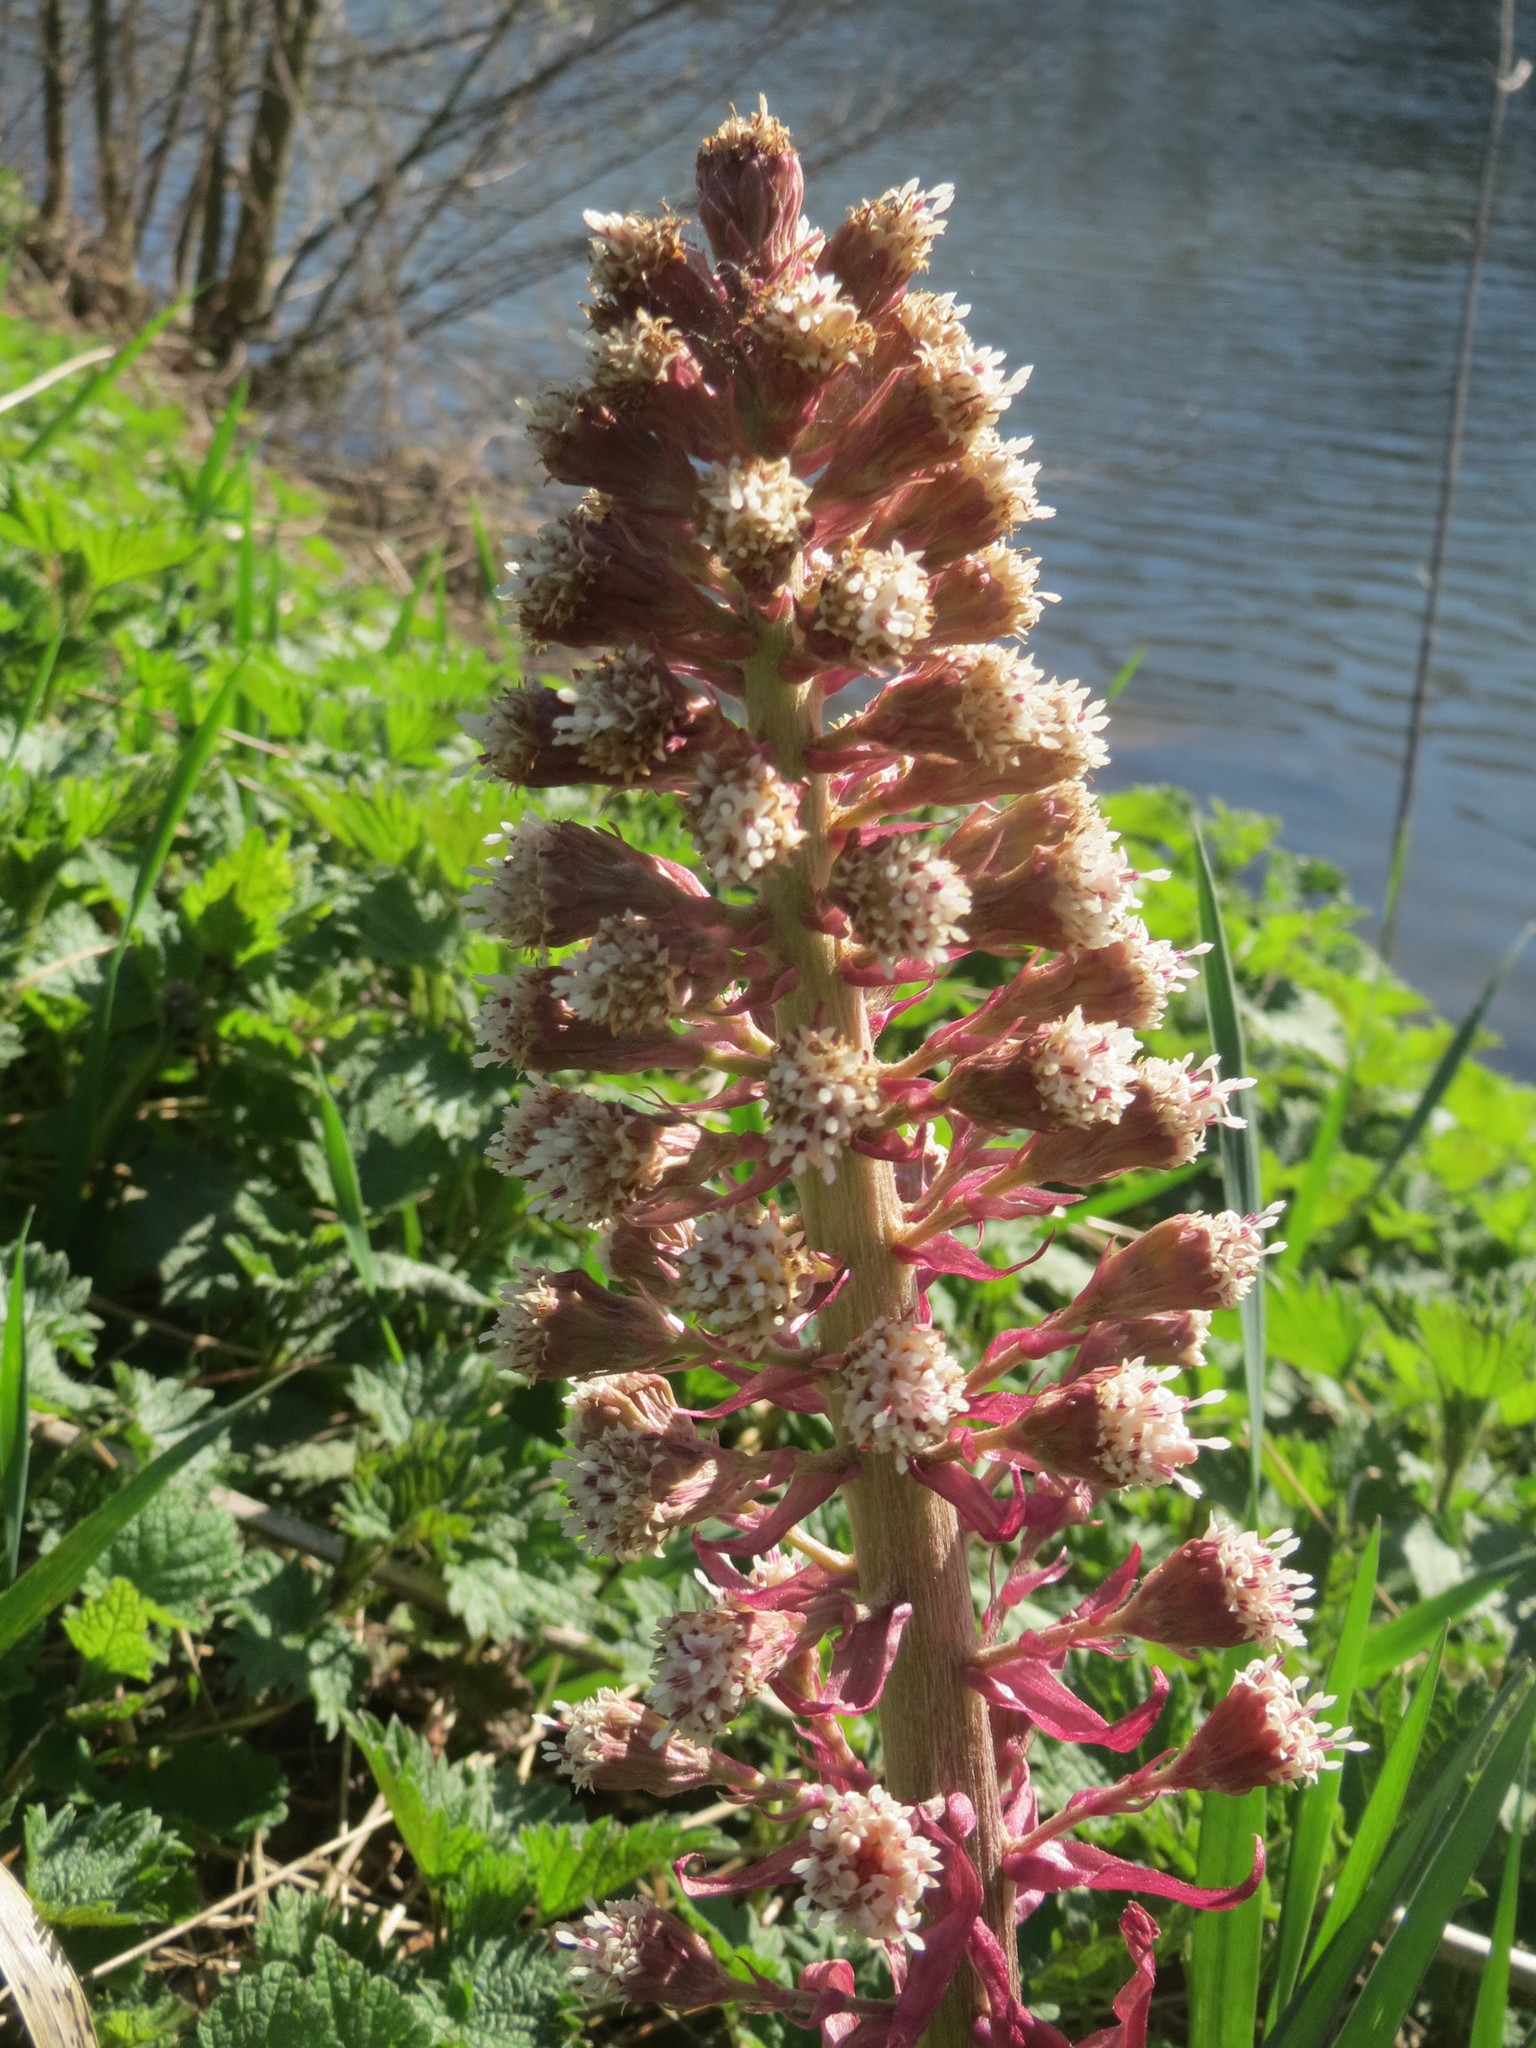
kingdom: Plantae
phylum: Tracheophyta
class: Magnoliopsida
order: Asterales
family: Asteraceae
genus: Petasites
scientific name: Petasites hybridus
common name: Butterbur
